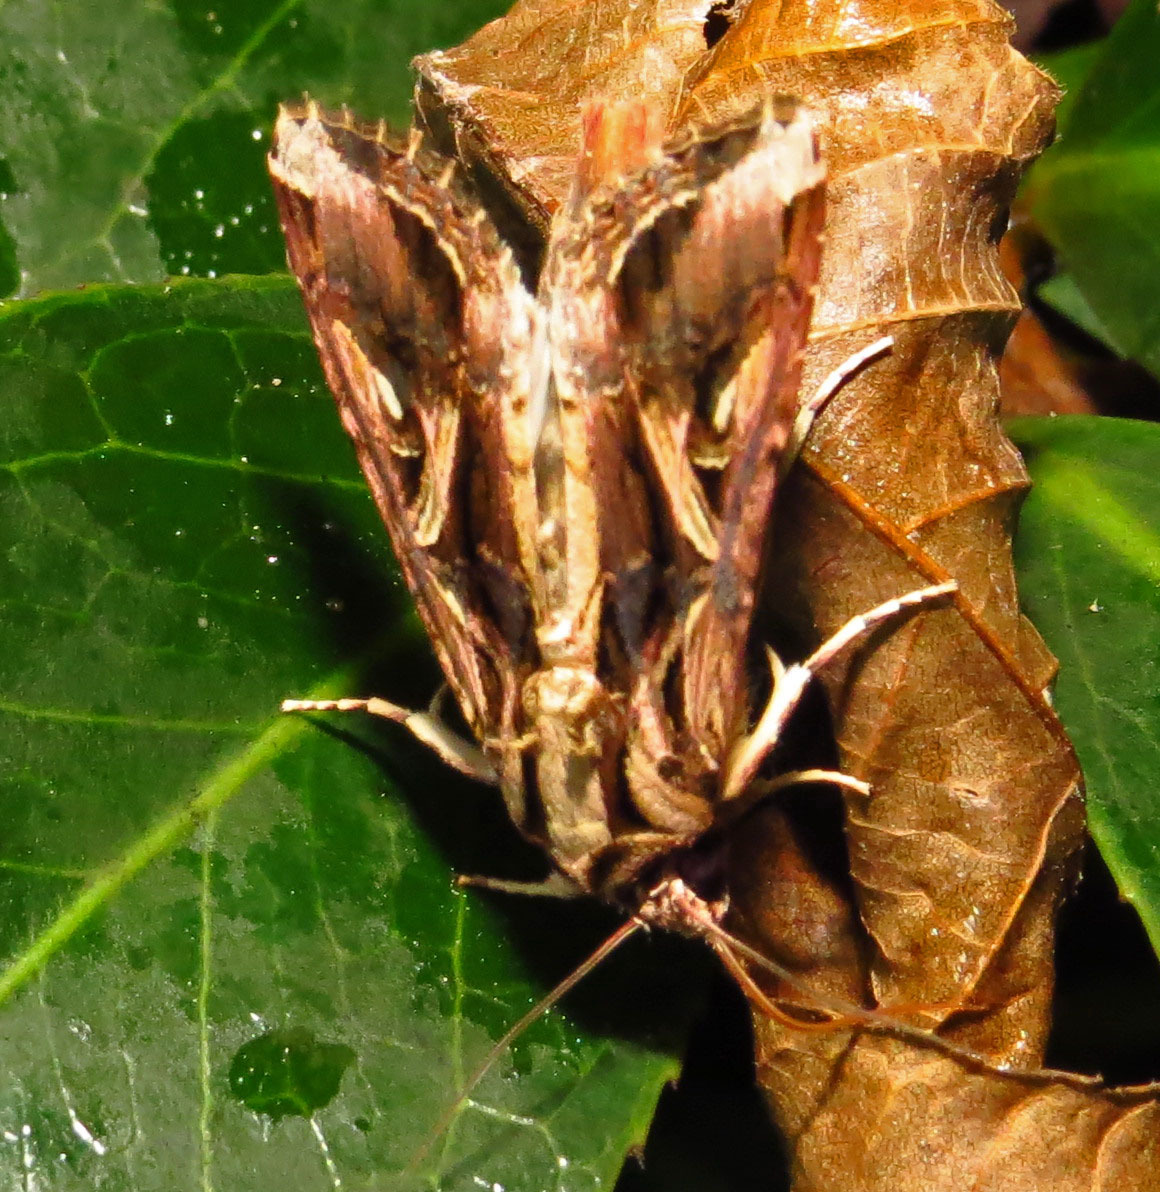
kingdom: Animalia
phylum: Arthropoda
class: Insecta
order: Lepidoptera
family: Noctuidae
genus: Spodoptera
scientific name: Spodoptera dolichos
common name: Sweetpotato armyworm
